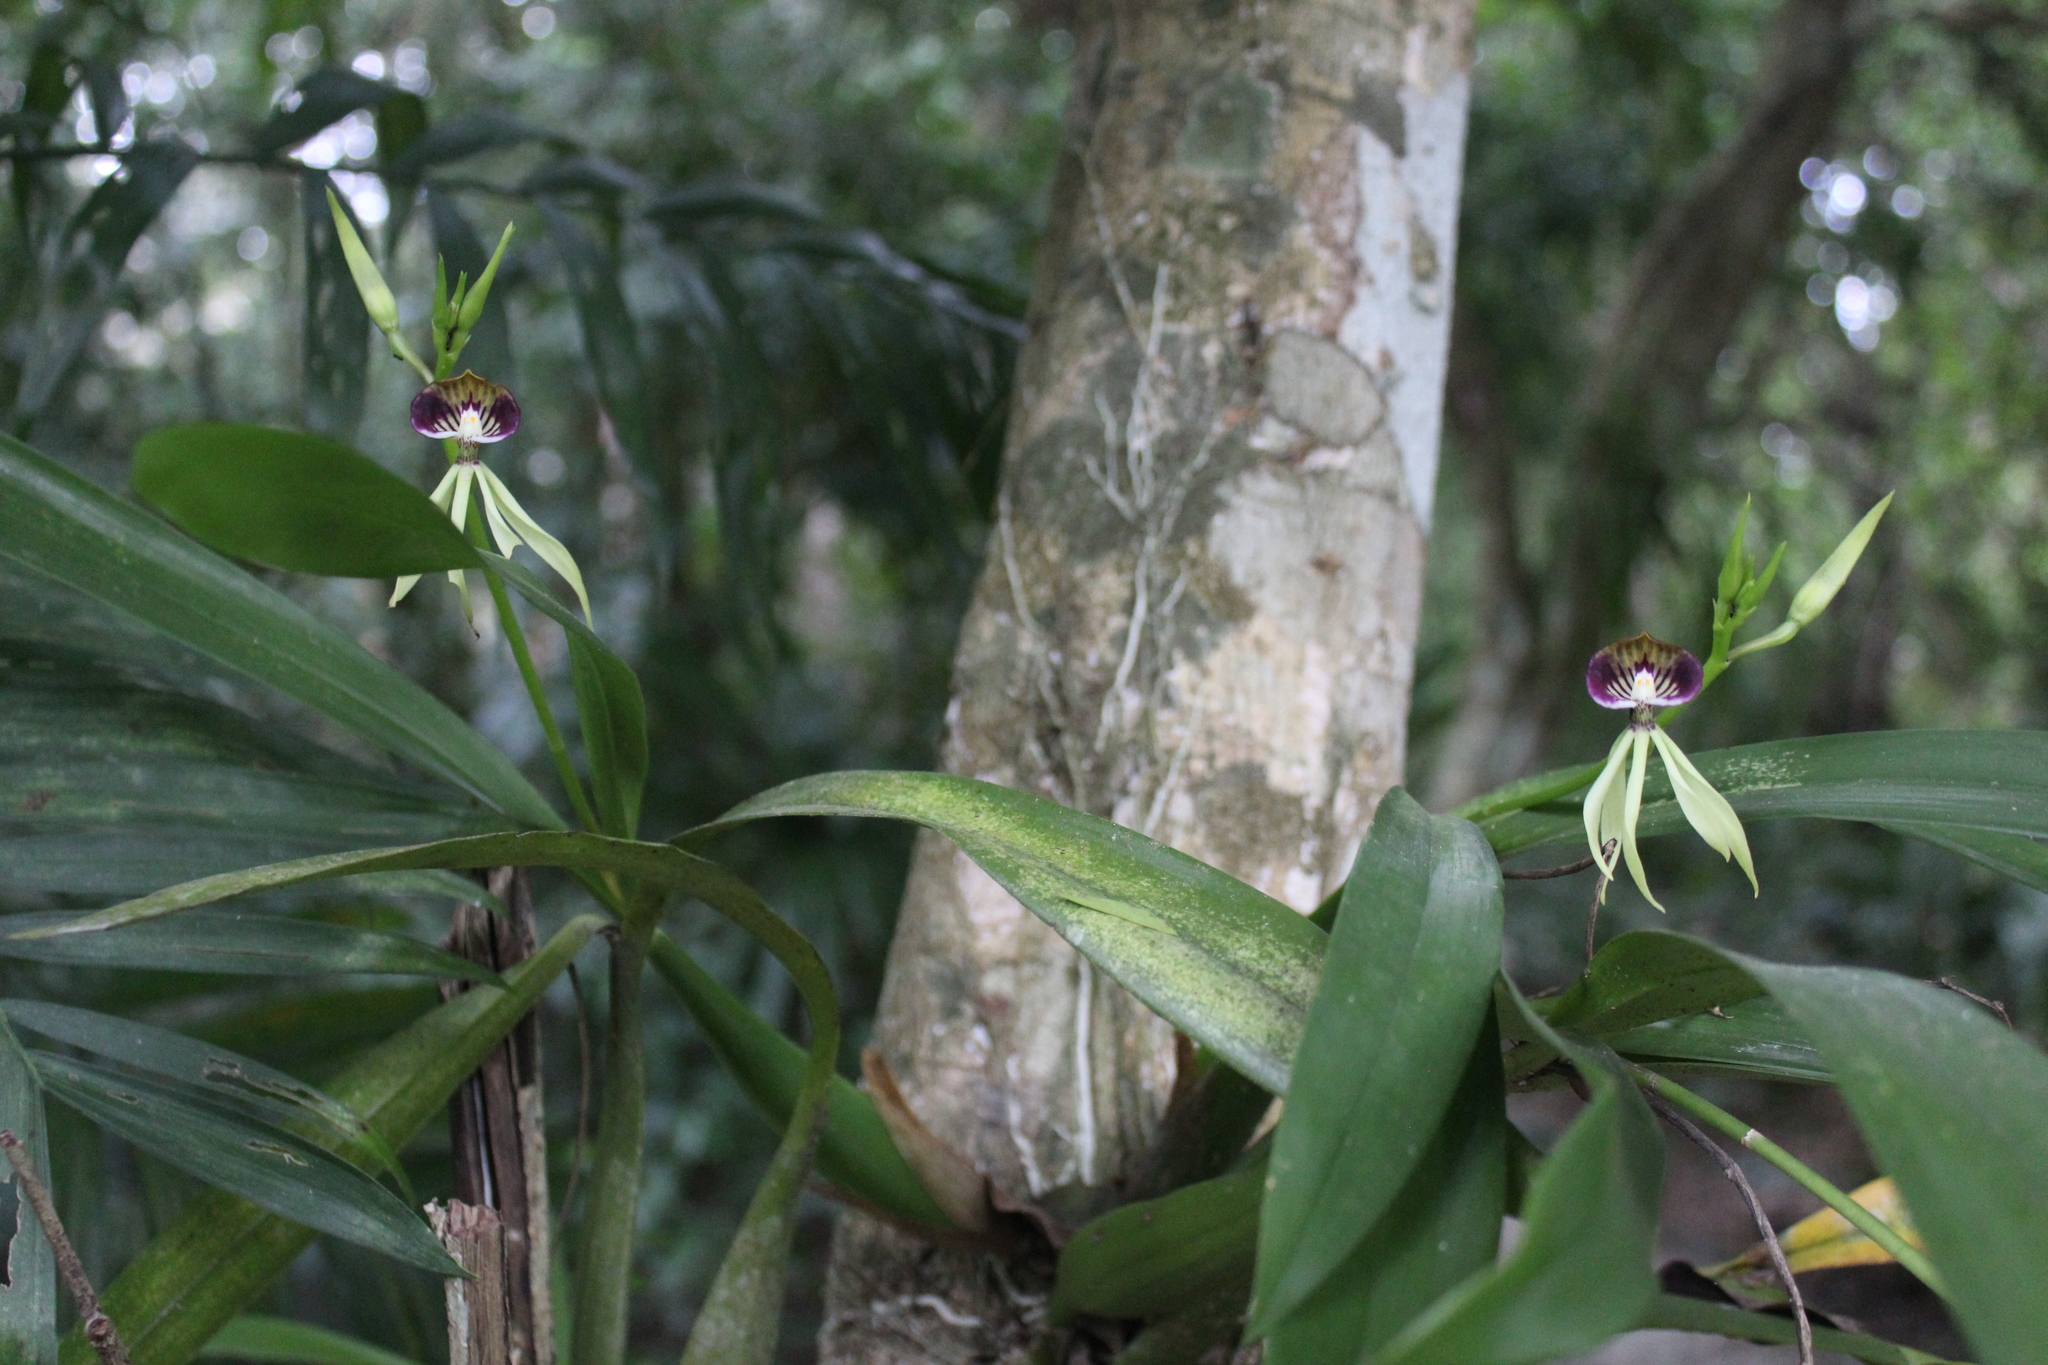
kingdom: Plantae
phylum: Tracheophyta
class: Liliopsida
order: Asparagales
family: Orchidaceae
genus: Prosthechea
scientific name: Prosthechea cochleata
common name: Clamshell orchid
